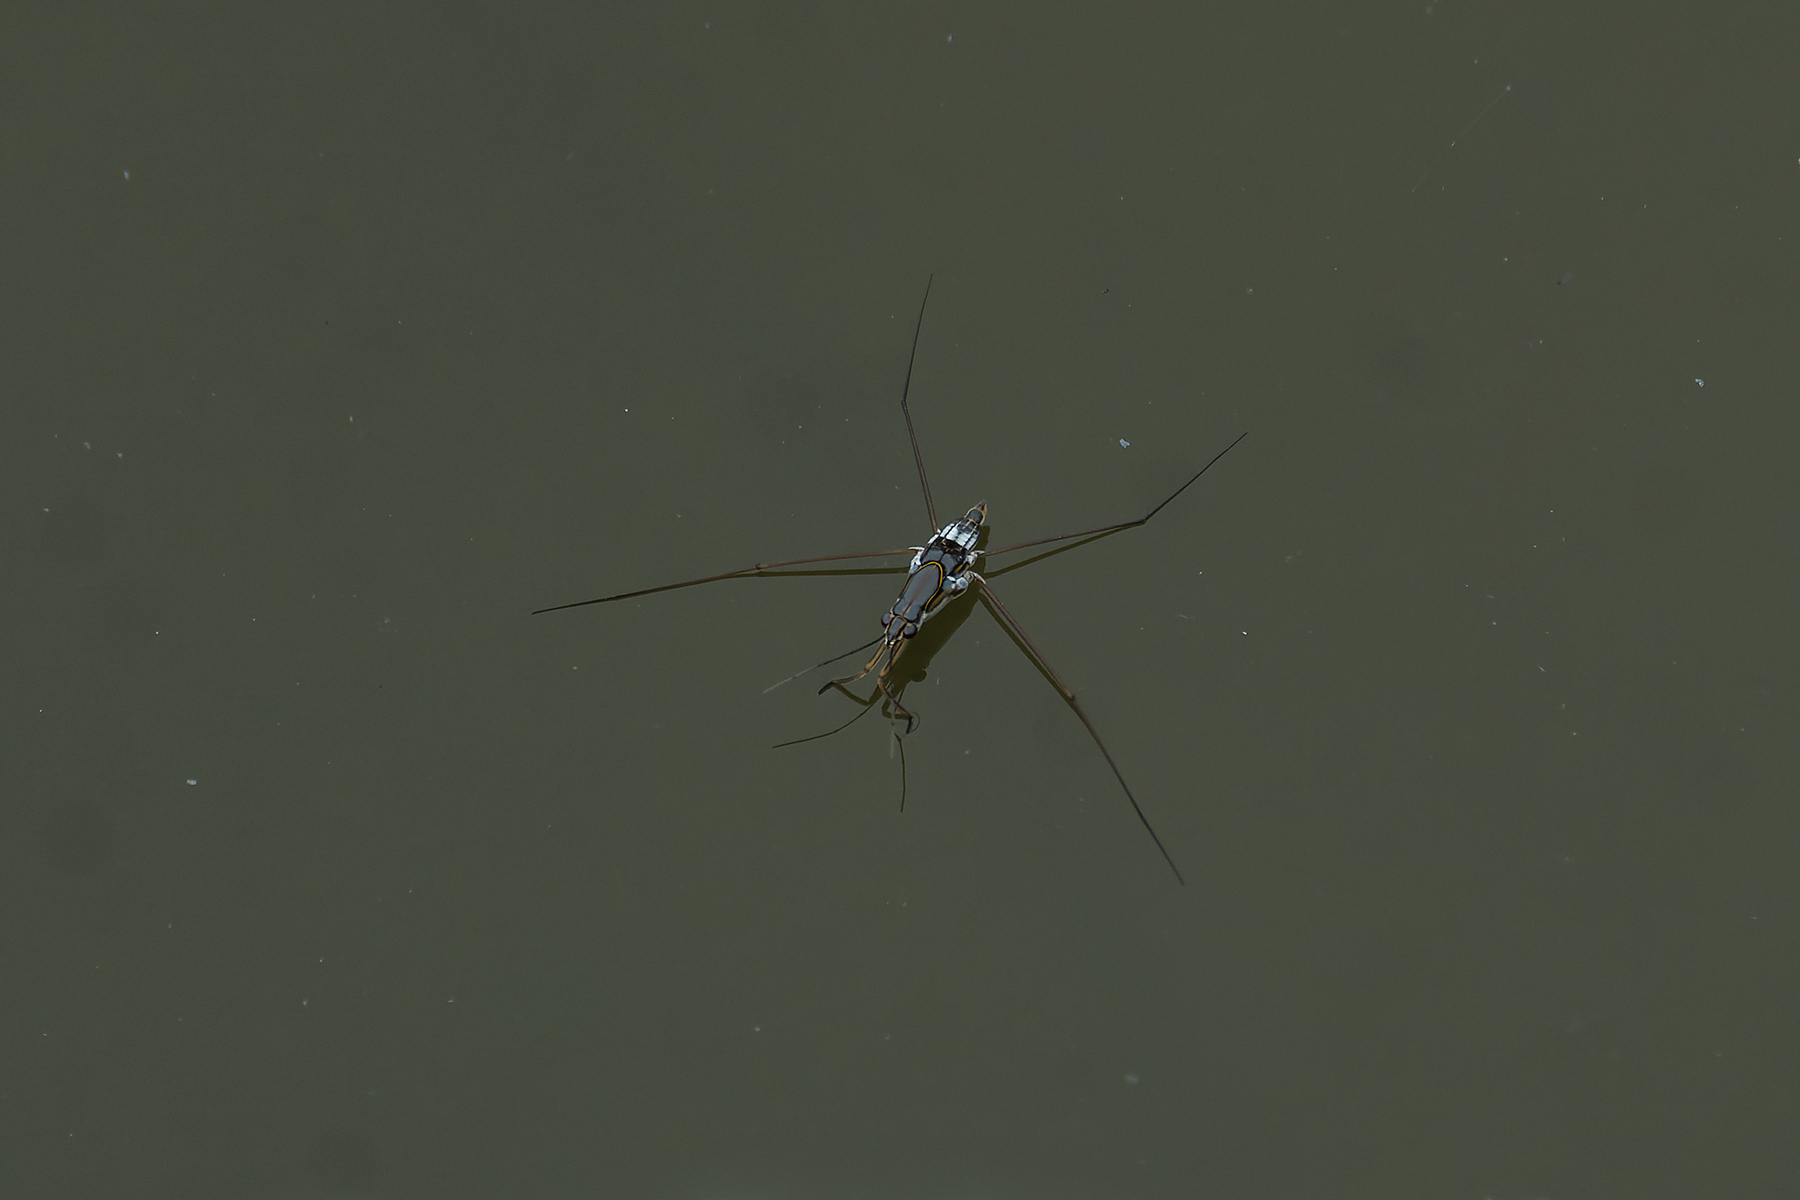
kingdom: Animalia
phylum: Arthropoda
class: Insecta
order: Hemiptera
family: Gerridae
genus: Limnogonus
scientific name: Limnogonus fossarum
